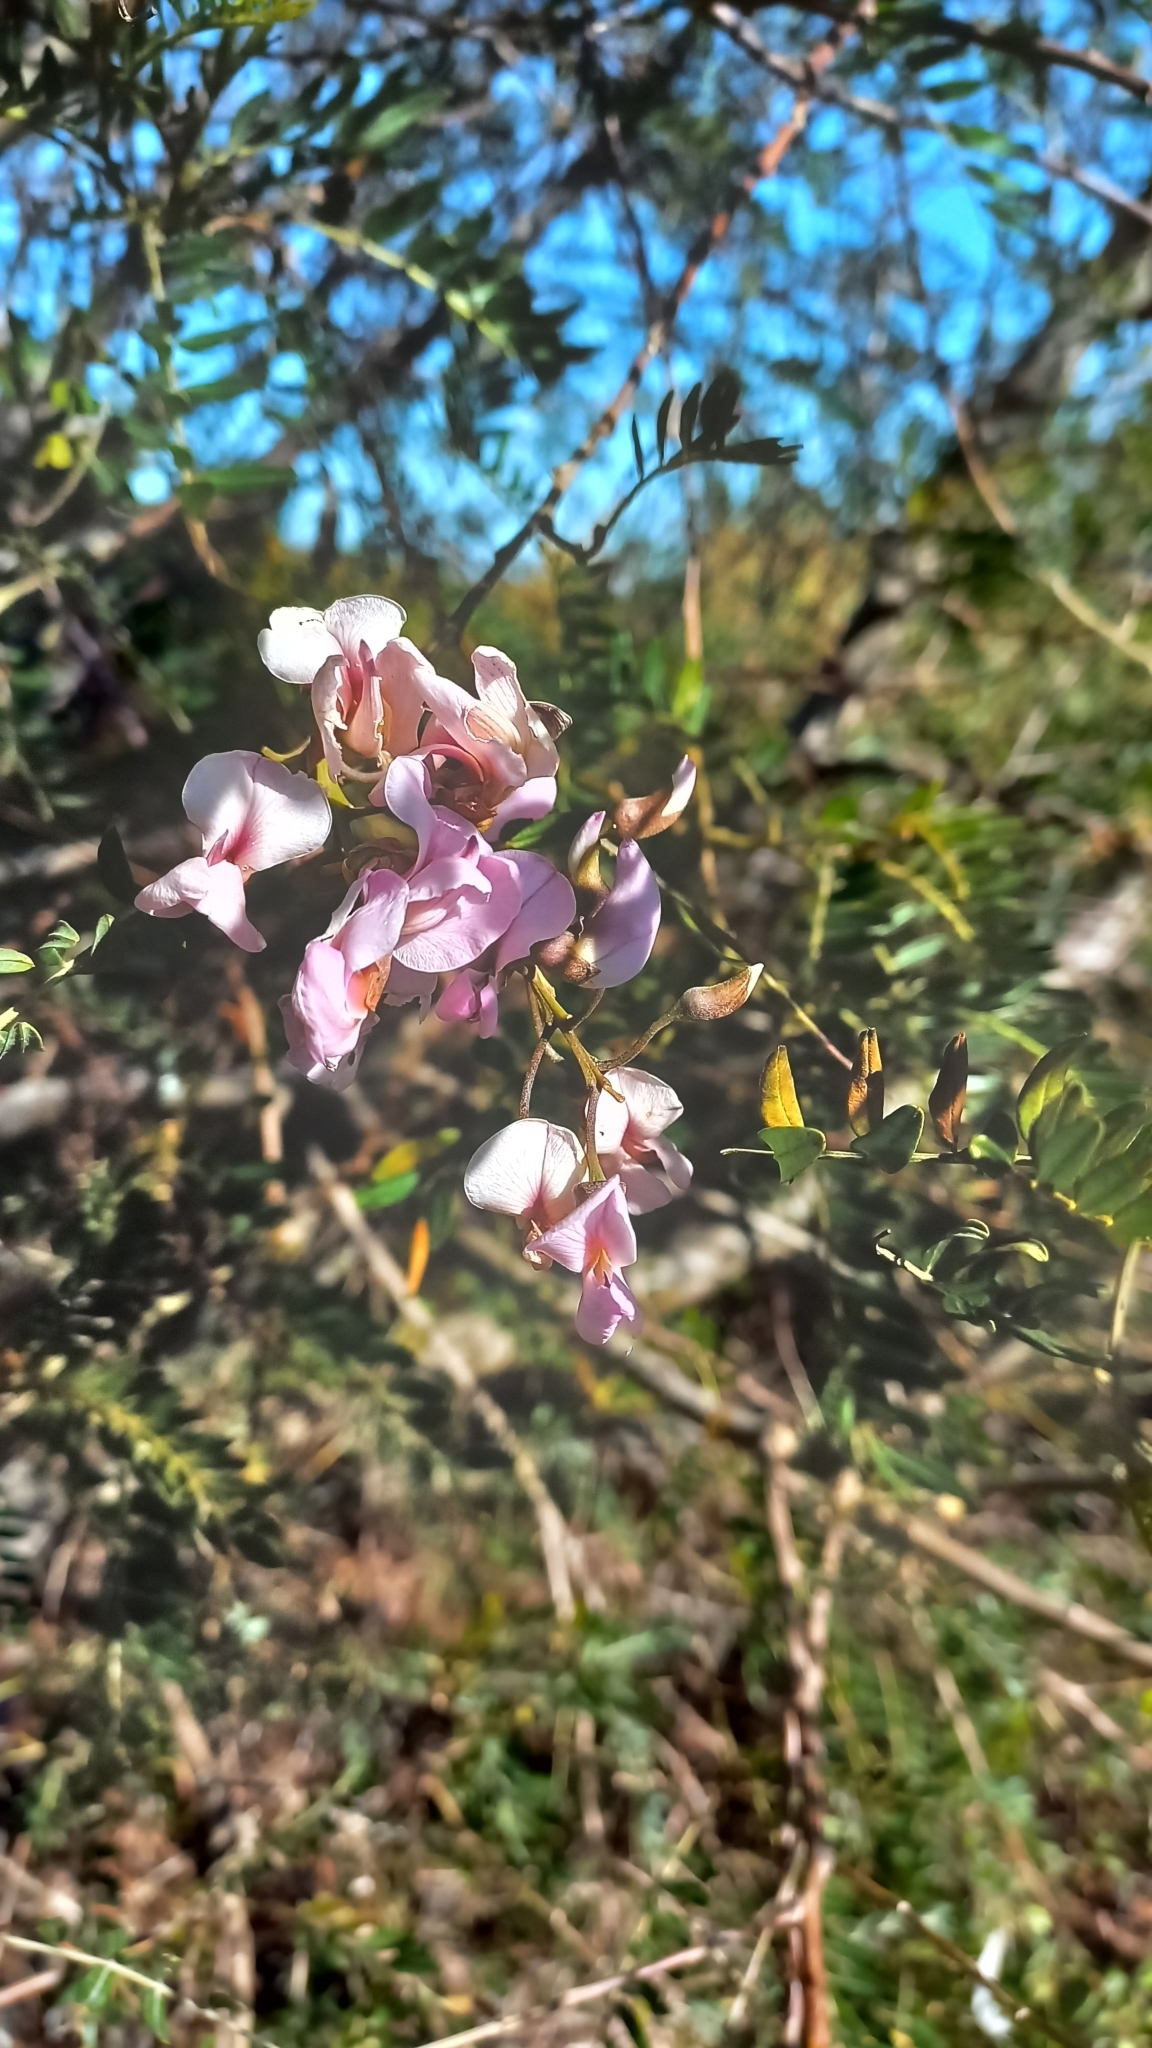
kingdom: Plantae
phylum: Tracheophyta
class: Magnoliopsida
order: Fabales
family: Fabaceae
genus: Virgilia
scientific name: Virgilia oroboides
